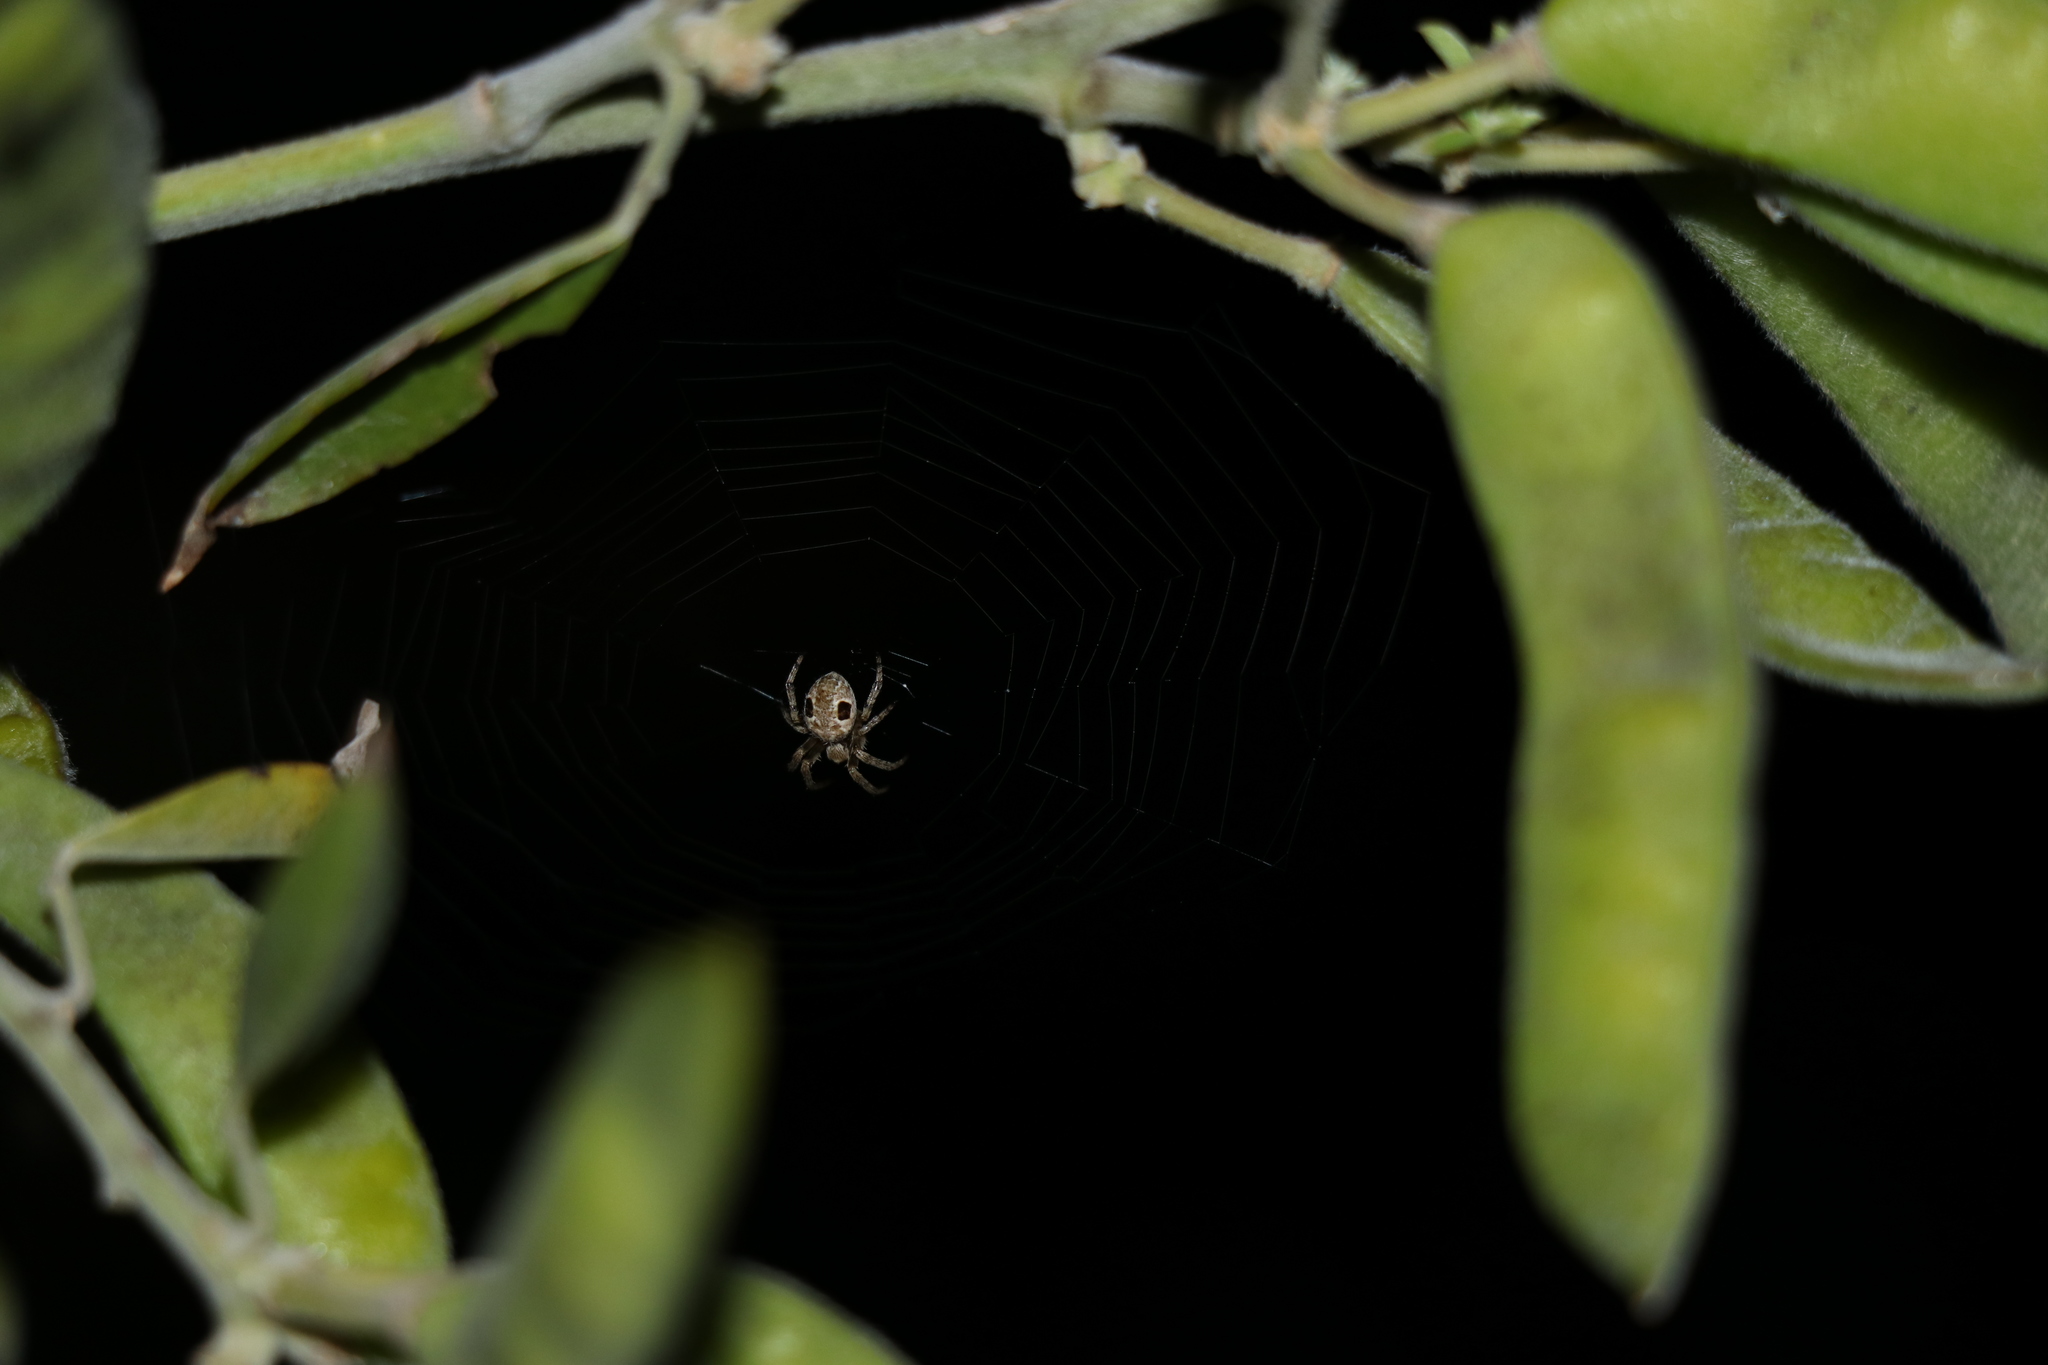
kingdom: Animalia
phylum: Arthropoda
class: Arachnida
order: Araneae
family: Araneidae
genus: Salsa
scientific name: Salsa fuliginata
